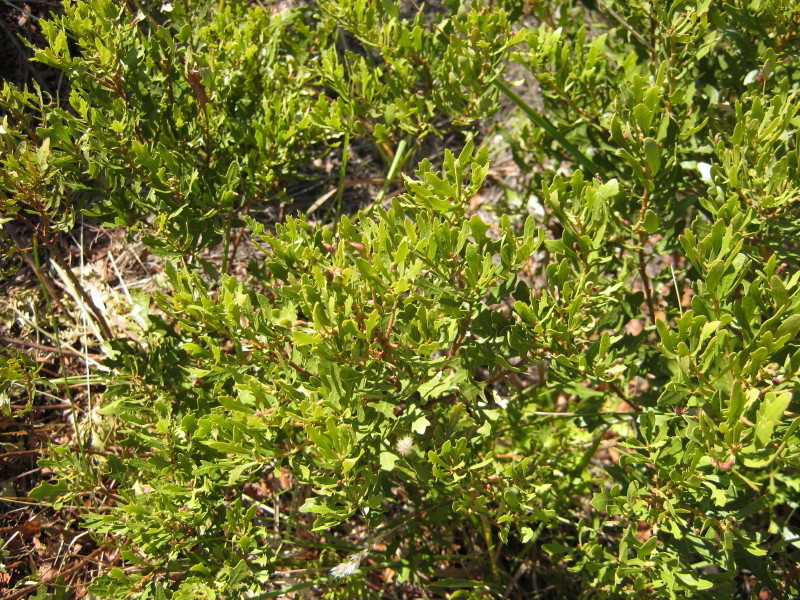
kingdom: Plantae
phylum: Tracheophyta
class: Magnoliopsida
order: Fagales
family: Myricaceae
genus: Morella
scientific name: Morella quercifolia
